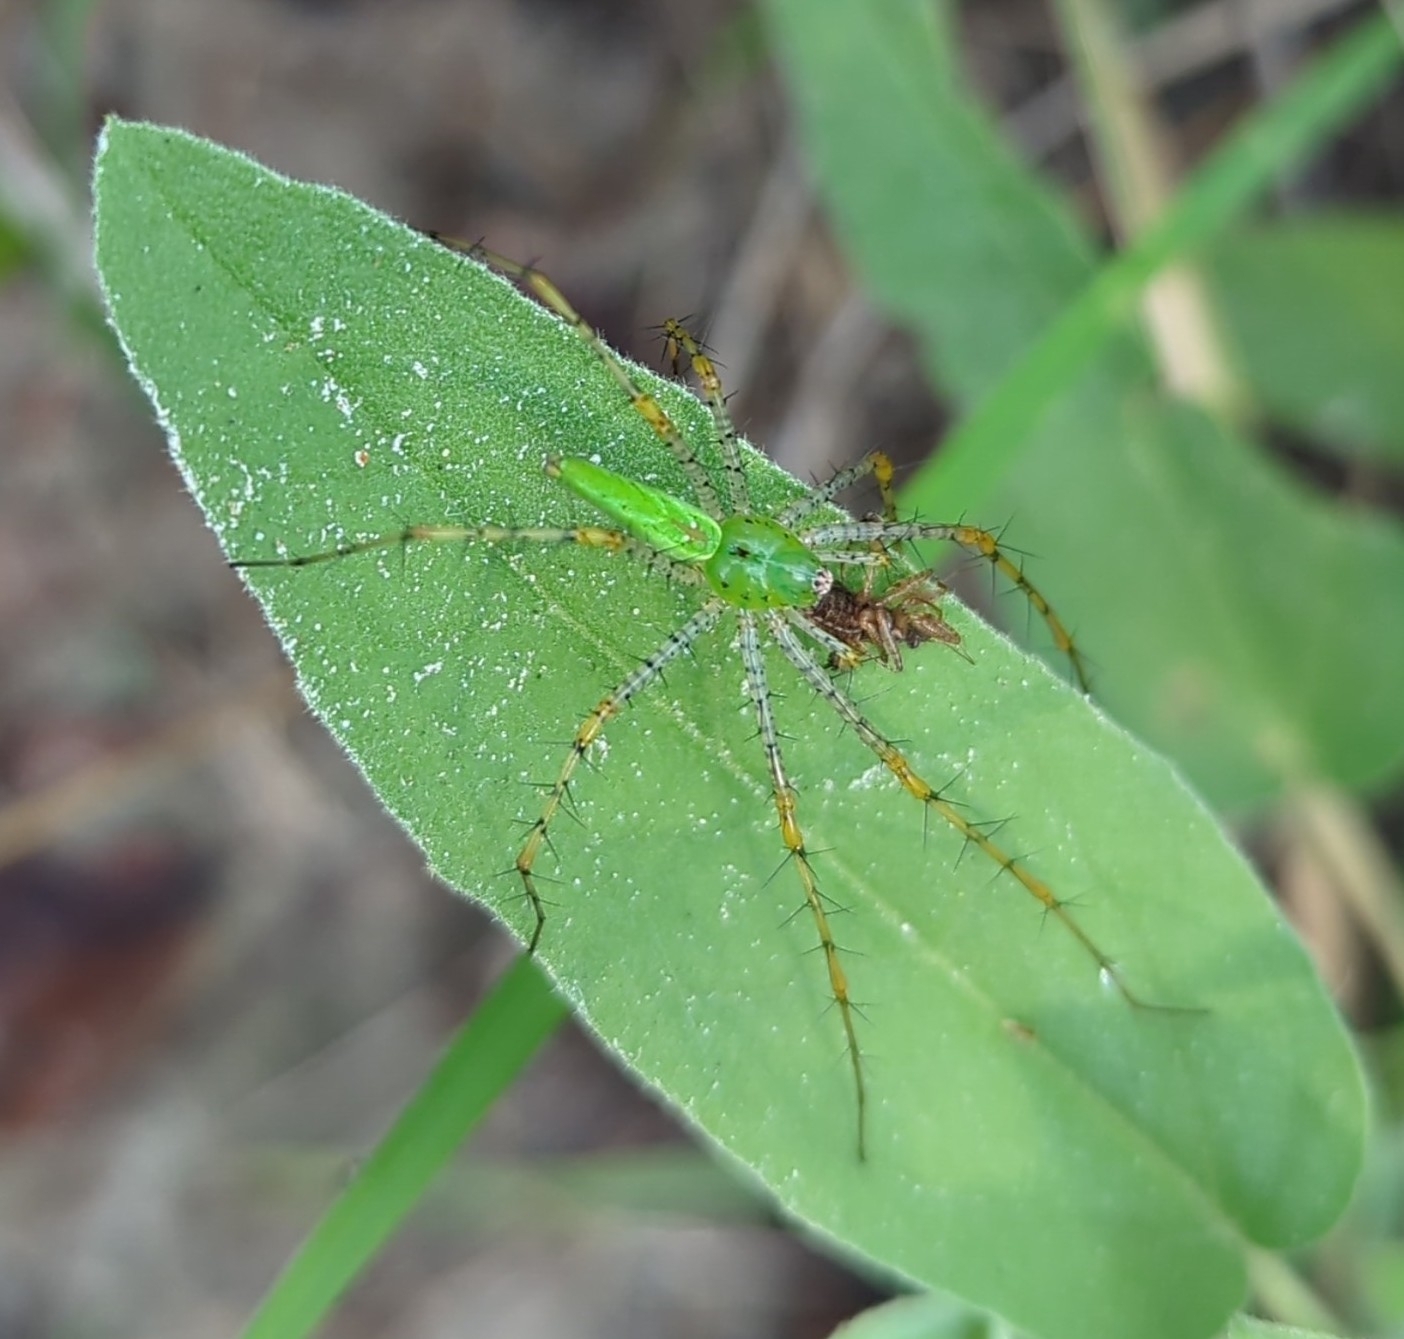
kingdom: Animalia
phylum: Arthropoda
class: Arachnida
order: Araneae
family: Oxyopidae
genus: Peucetia
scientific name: Peucetia viridans
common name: Lynx spiders
